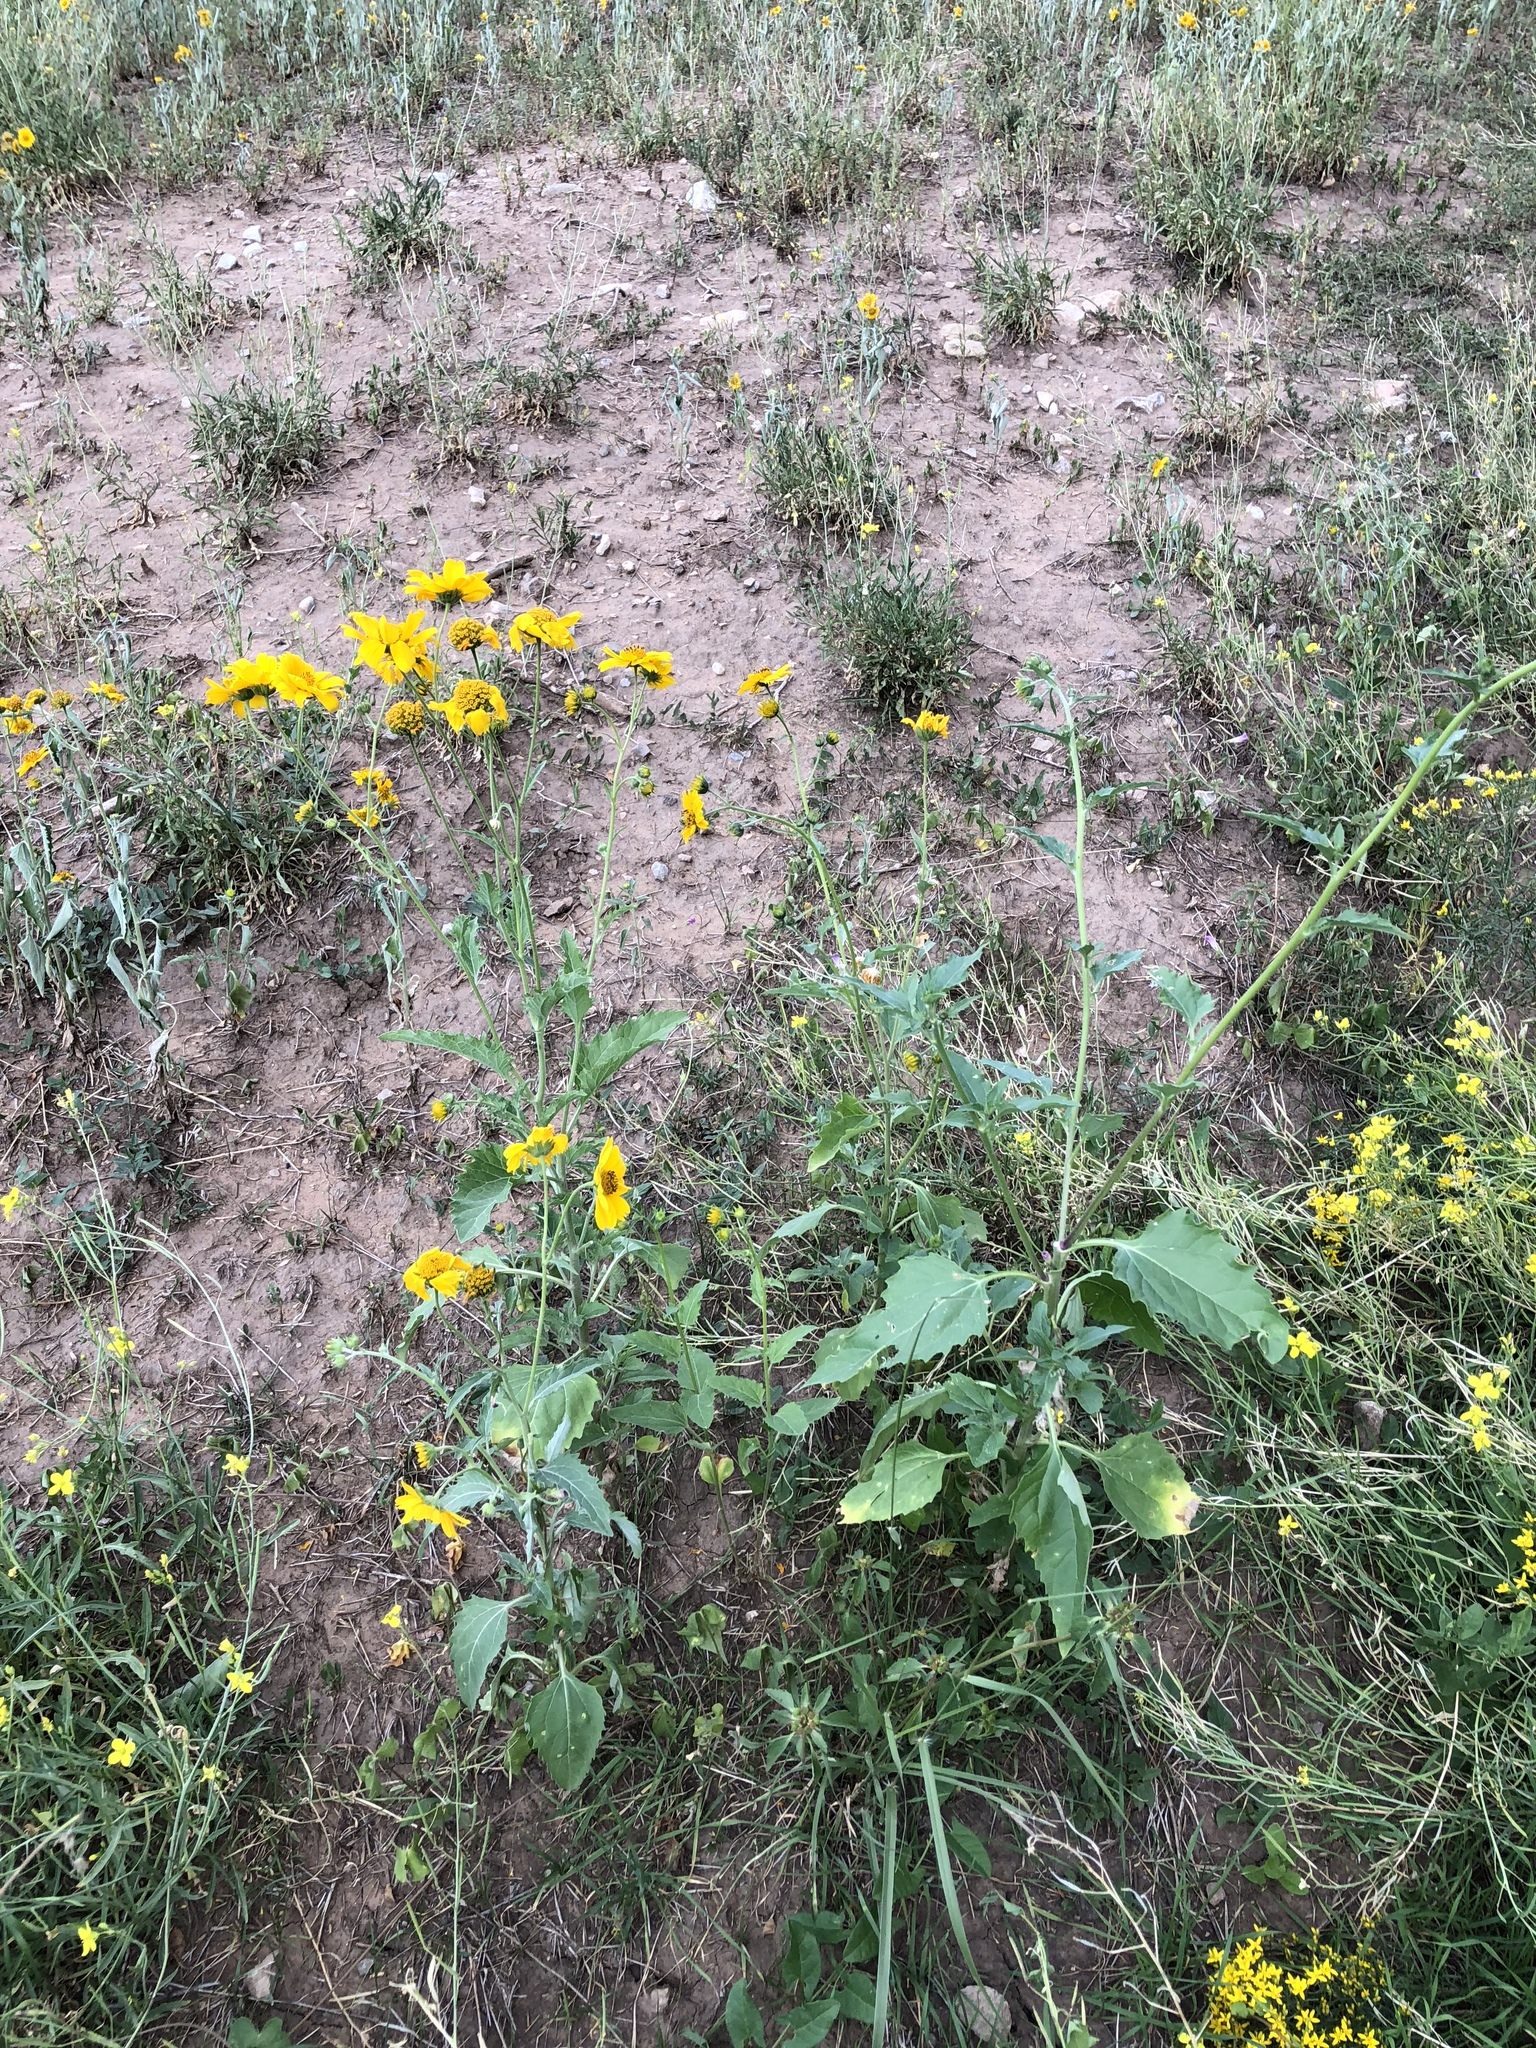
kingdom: Plantae
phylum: Tracheophyta
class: Magnoliopsida
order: Asterales
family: Asteraceae
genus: Verbesina
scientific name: Verbesina encelioides
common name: Golden crownbeard
